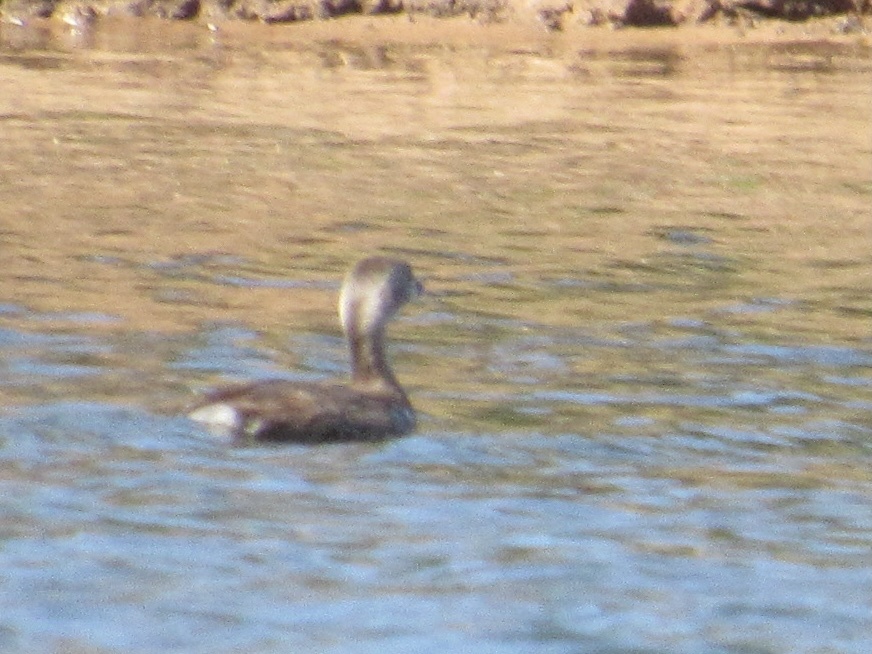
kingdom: Animalia
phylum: Chordata
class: Aves
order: Podicipediformes
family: Podicipedidae
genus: Podilymbus
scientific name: Podilymbus podiceps
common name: Pied-billed grebe
